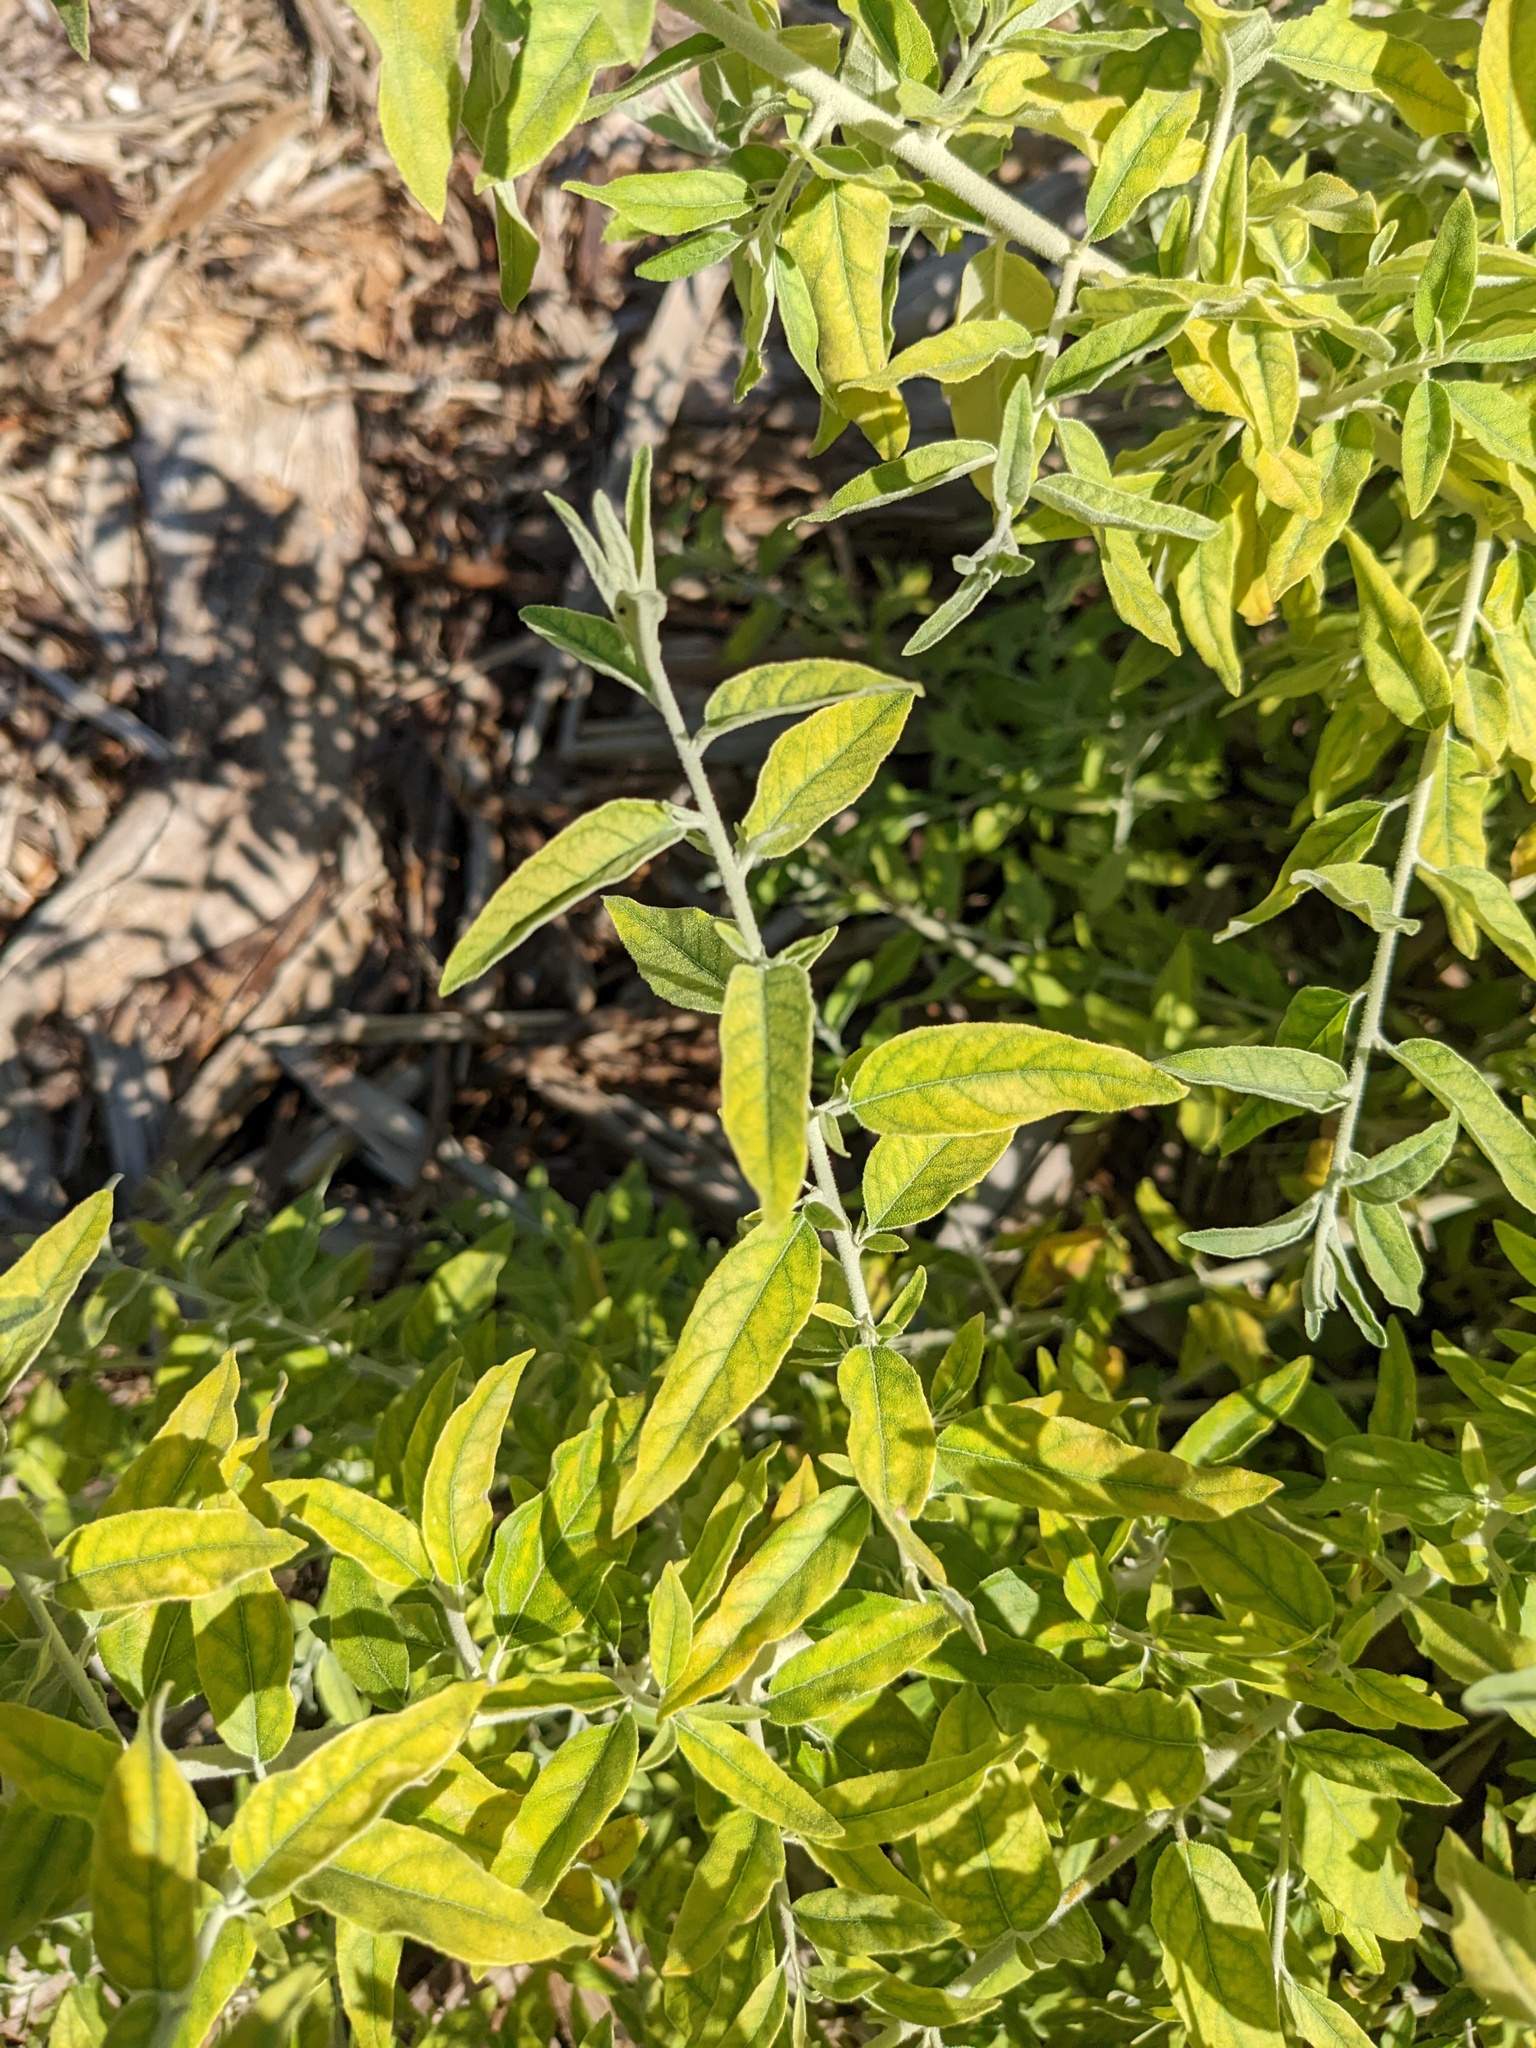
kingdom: Plantae
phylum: Tracheophyta
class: Magnoliopsida
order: Rosales
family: Elaeagnaceae
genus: Elaeagnus
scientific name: Elaeagnus angustifolia
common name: Russian olive
